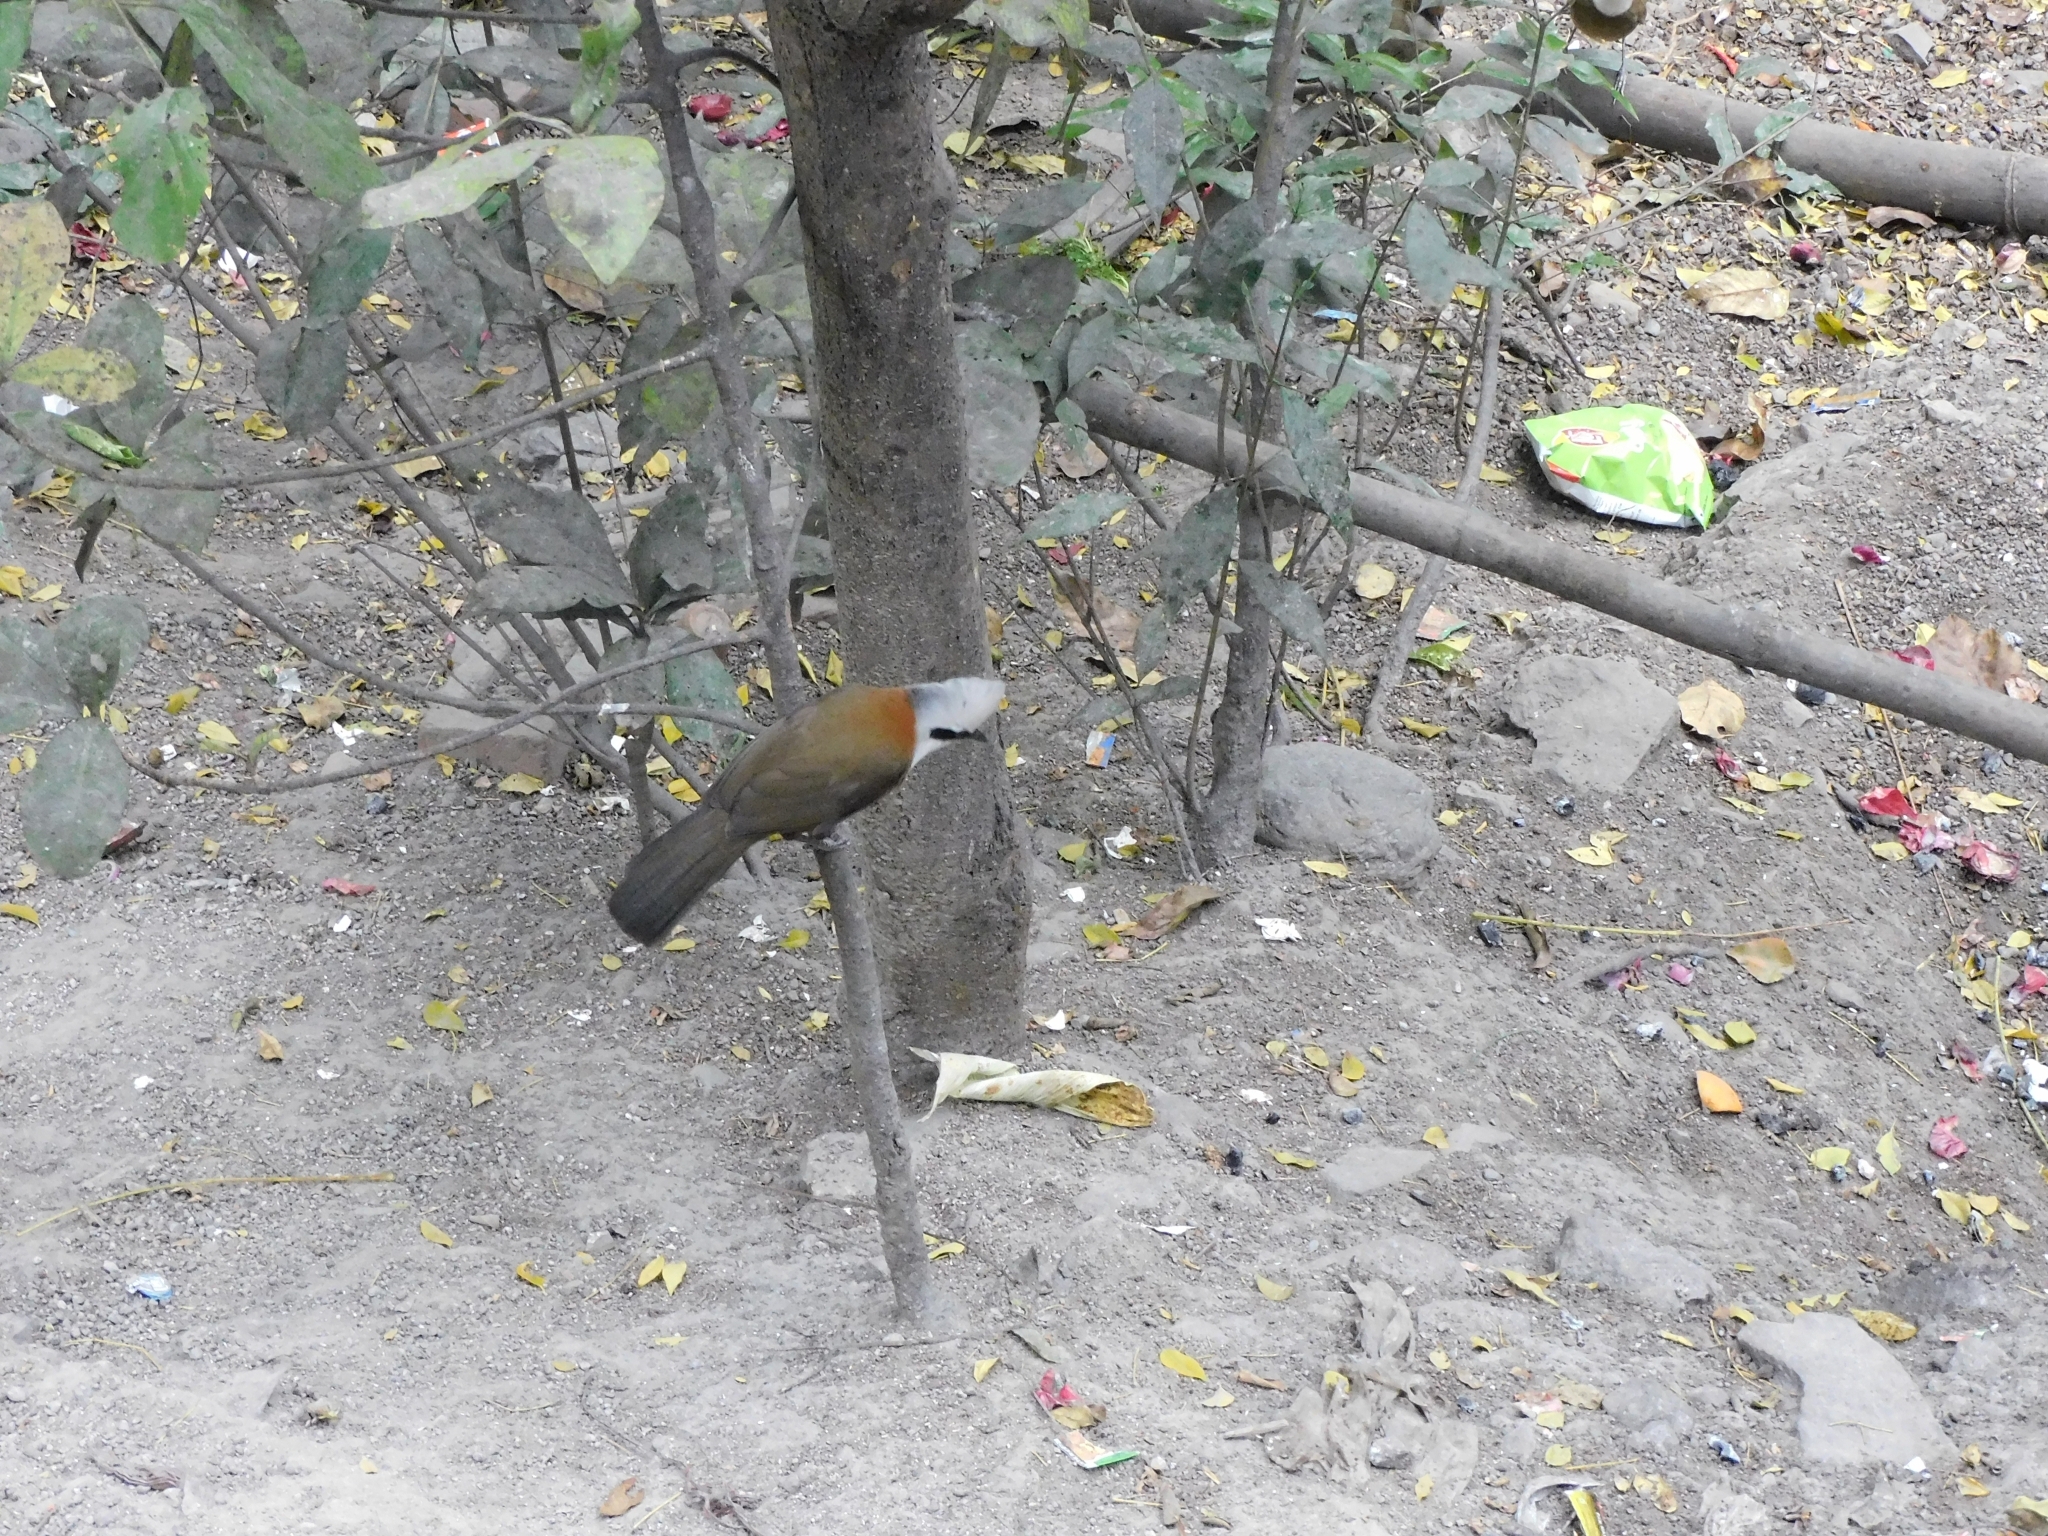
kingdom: Animalia
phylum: Chordata
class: Aves
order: Passeriformes
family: Leiothrichidae
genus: Garrulax
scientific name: Garrulax leucolophus
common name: White-crested laughingthrush
